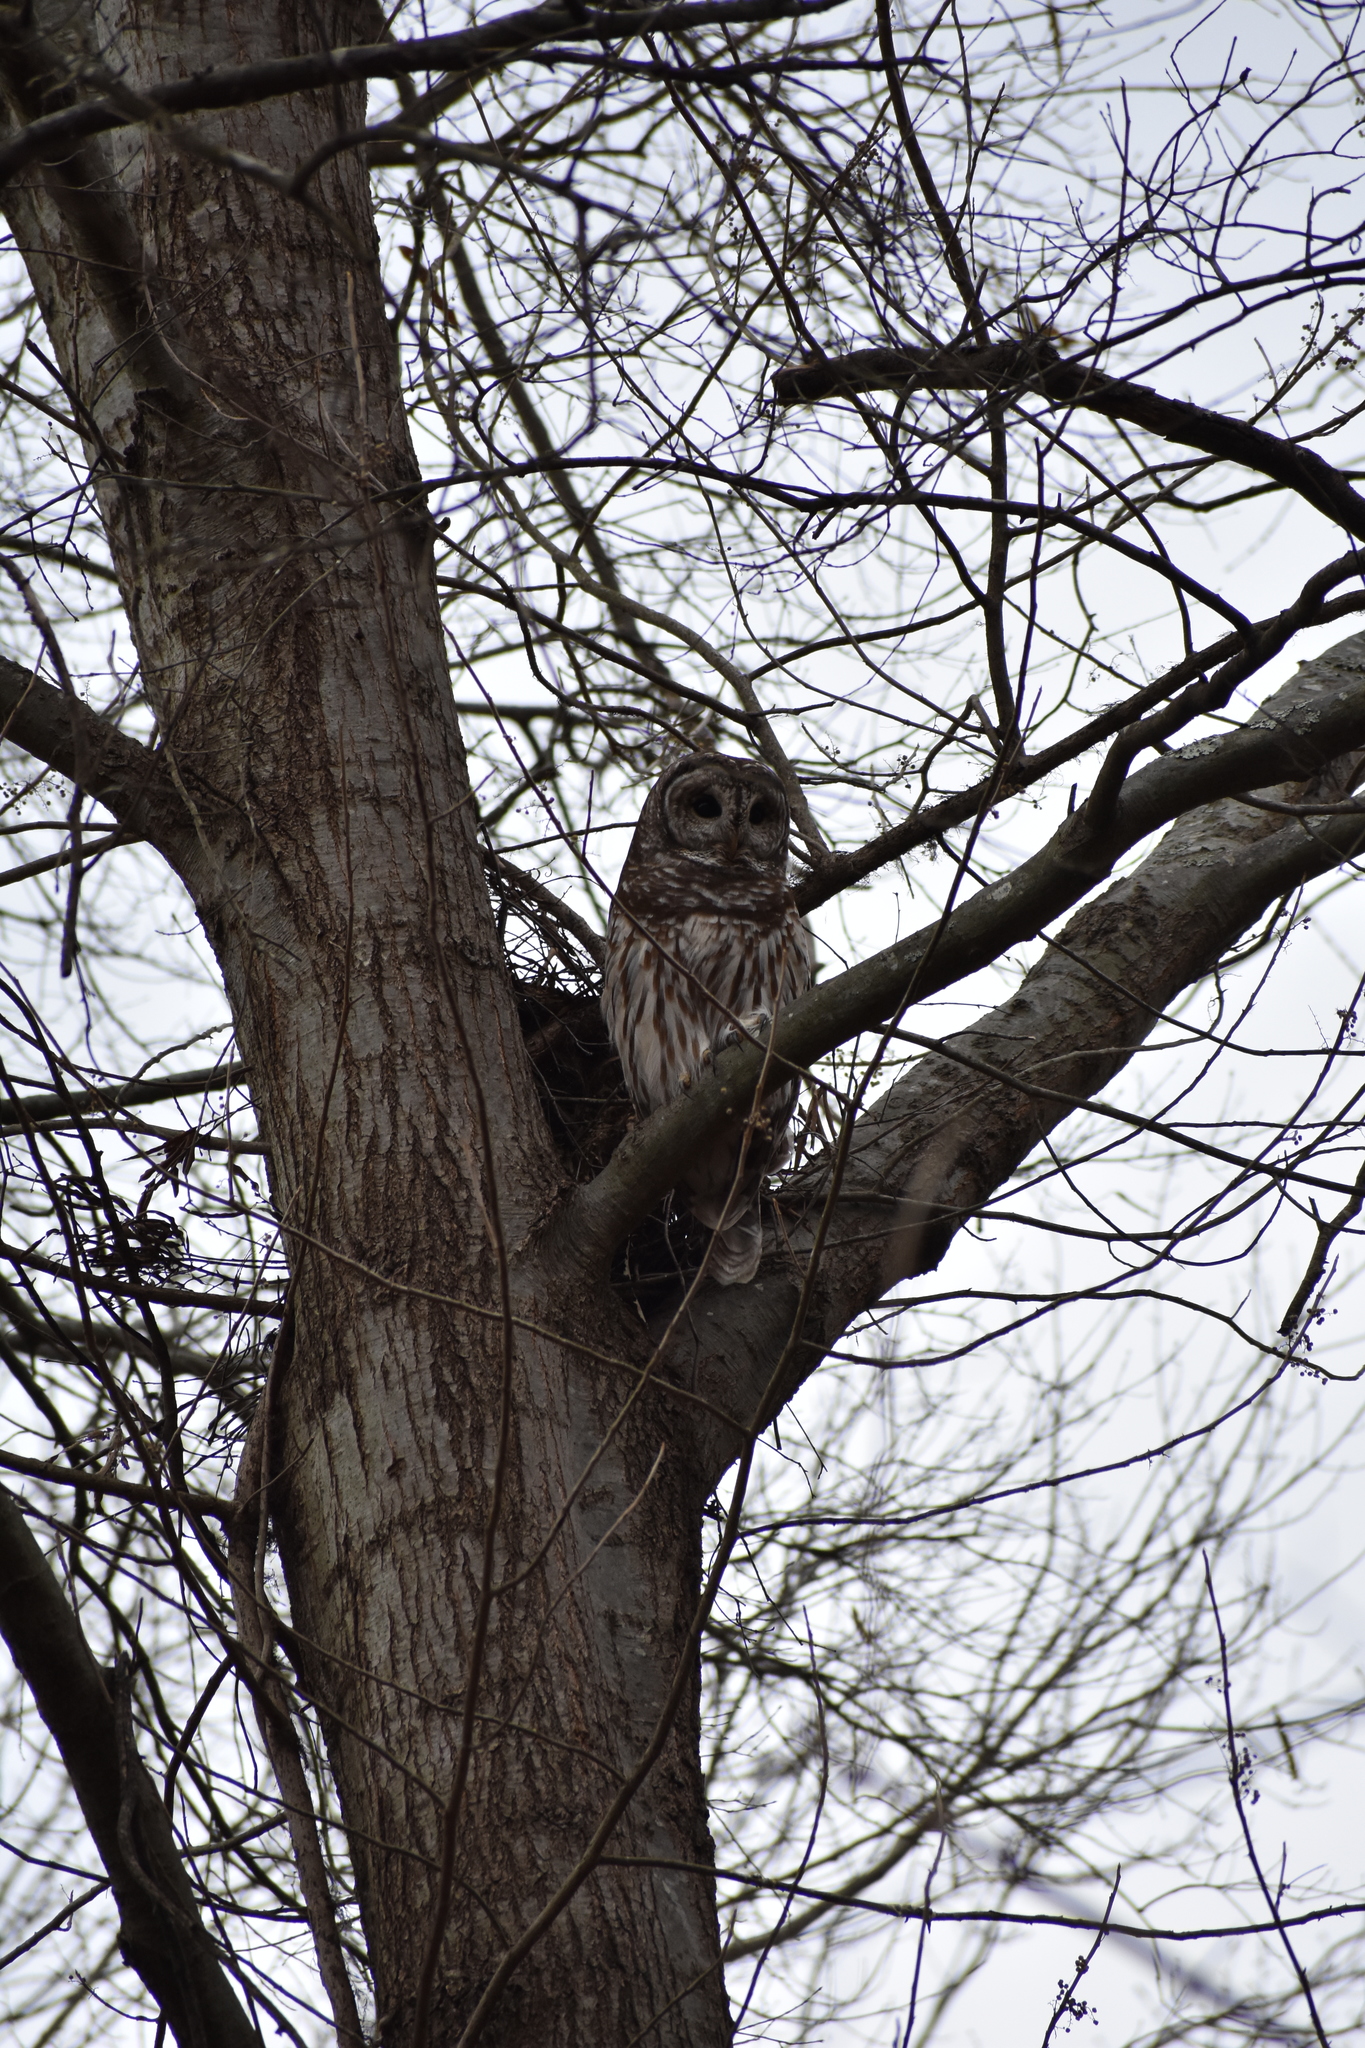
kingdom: Animalia
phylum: Chordata
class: Aves
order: Strigiformes
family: Strigidae
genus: Strix
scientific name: Strix varia
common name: Barred owl
